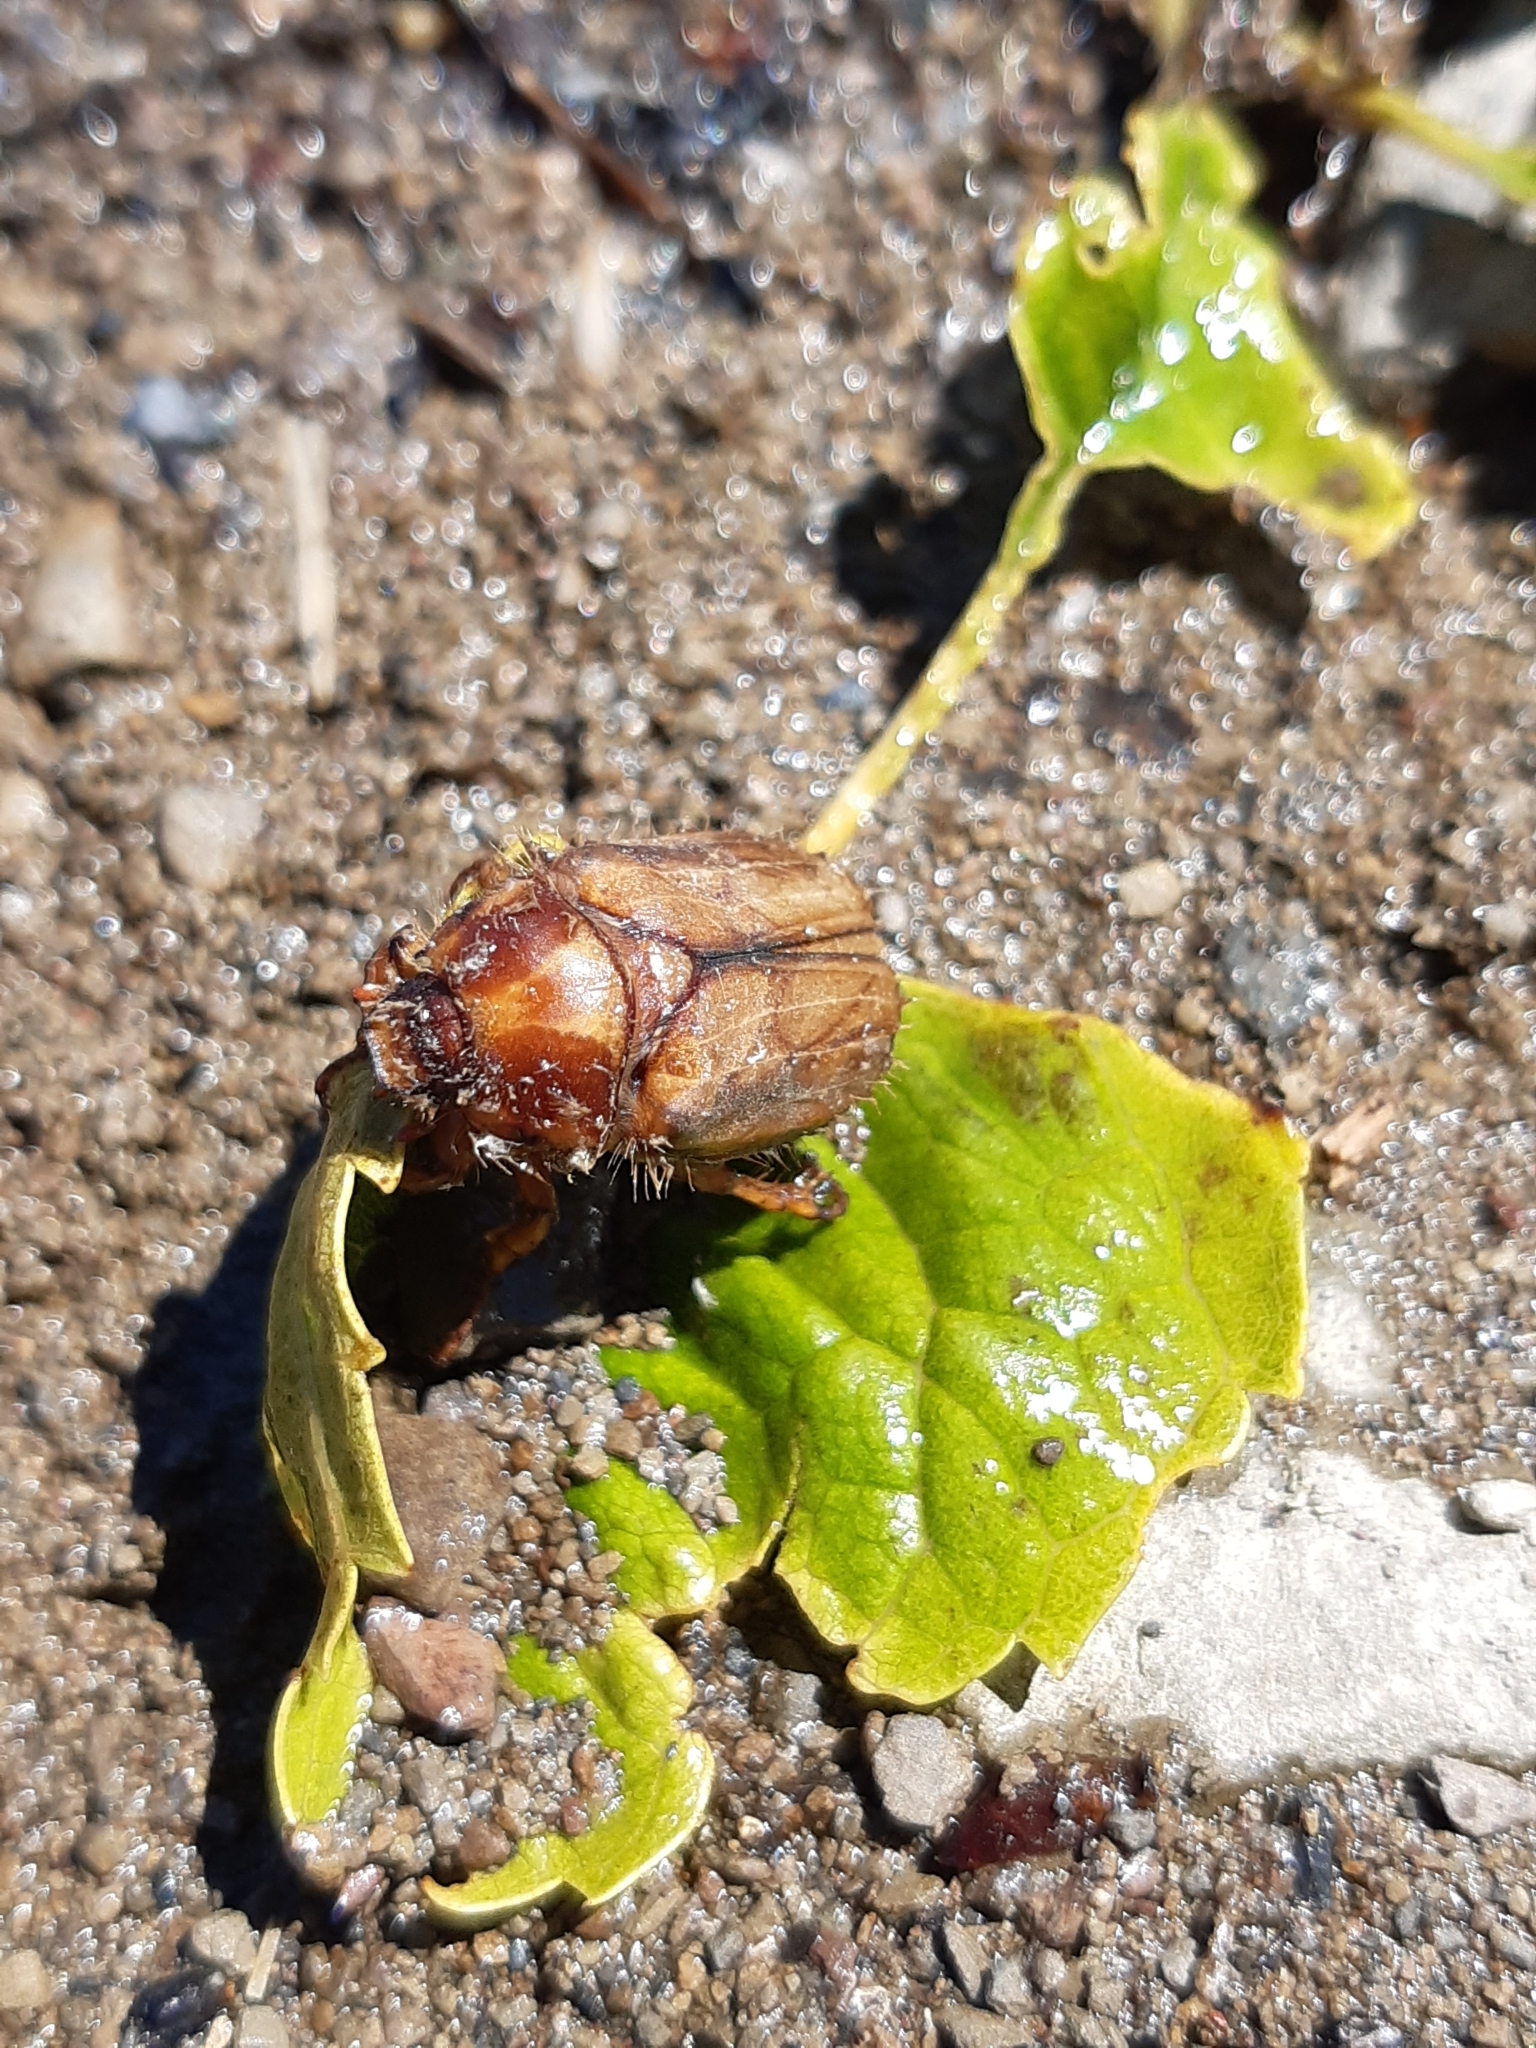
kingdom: Animalia
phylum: Arthropoda
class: Insecta
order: Coleoptera
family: Scarabaeidae
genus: Amphimallon
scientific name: Amphimallon solstitiale
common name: Summer chafer
